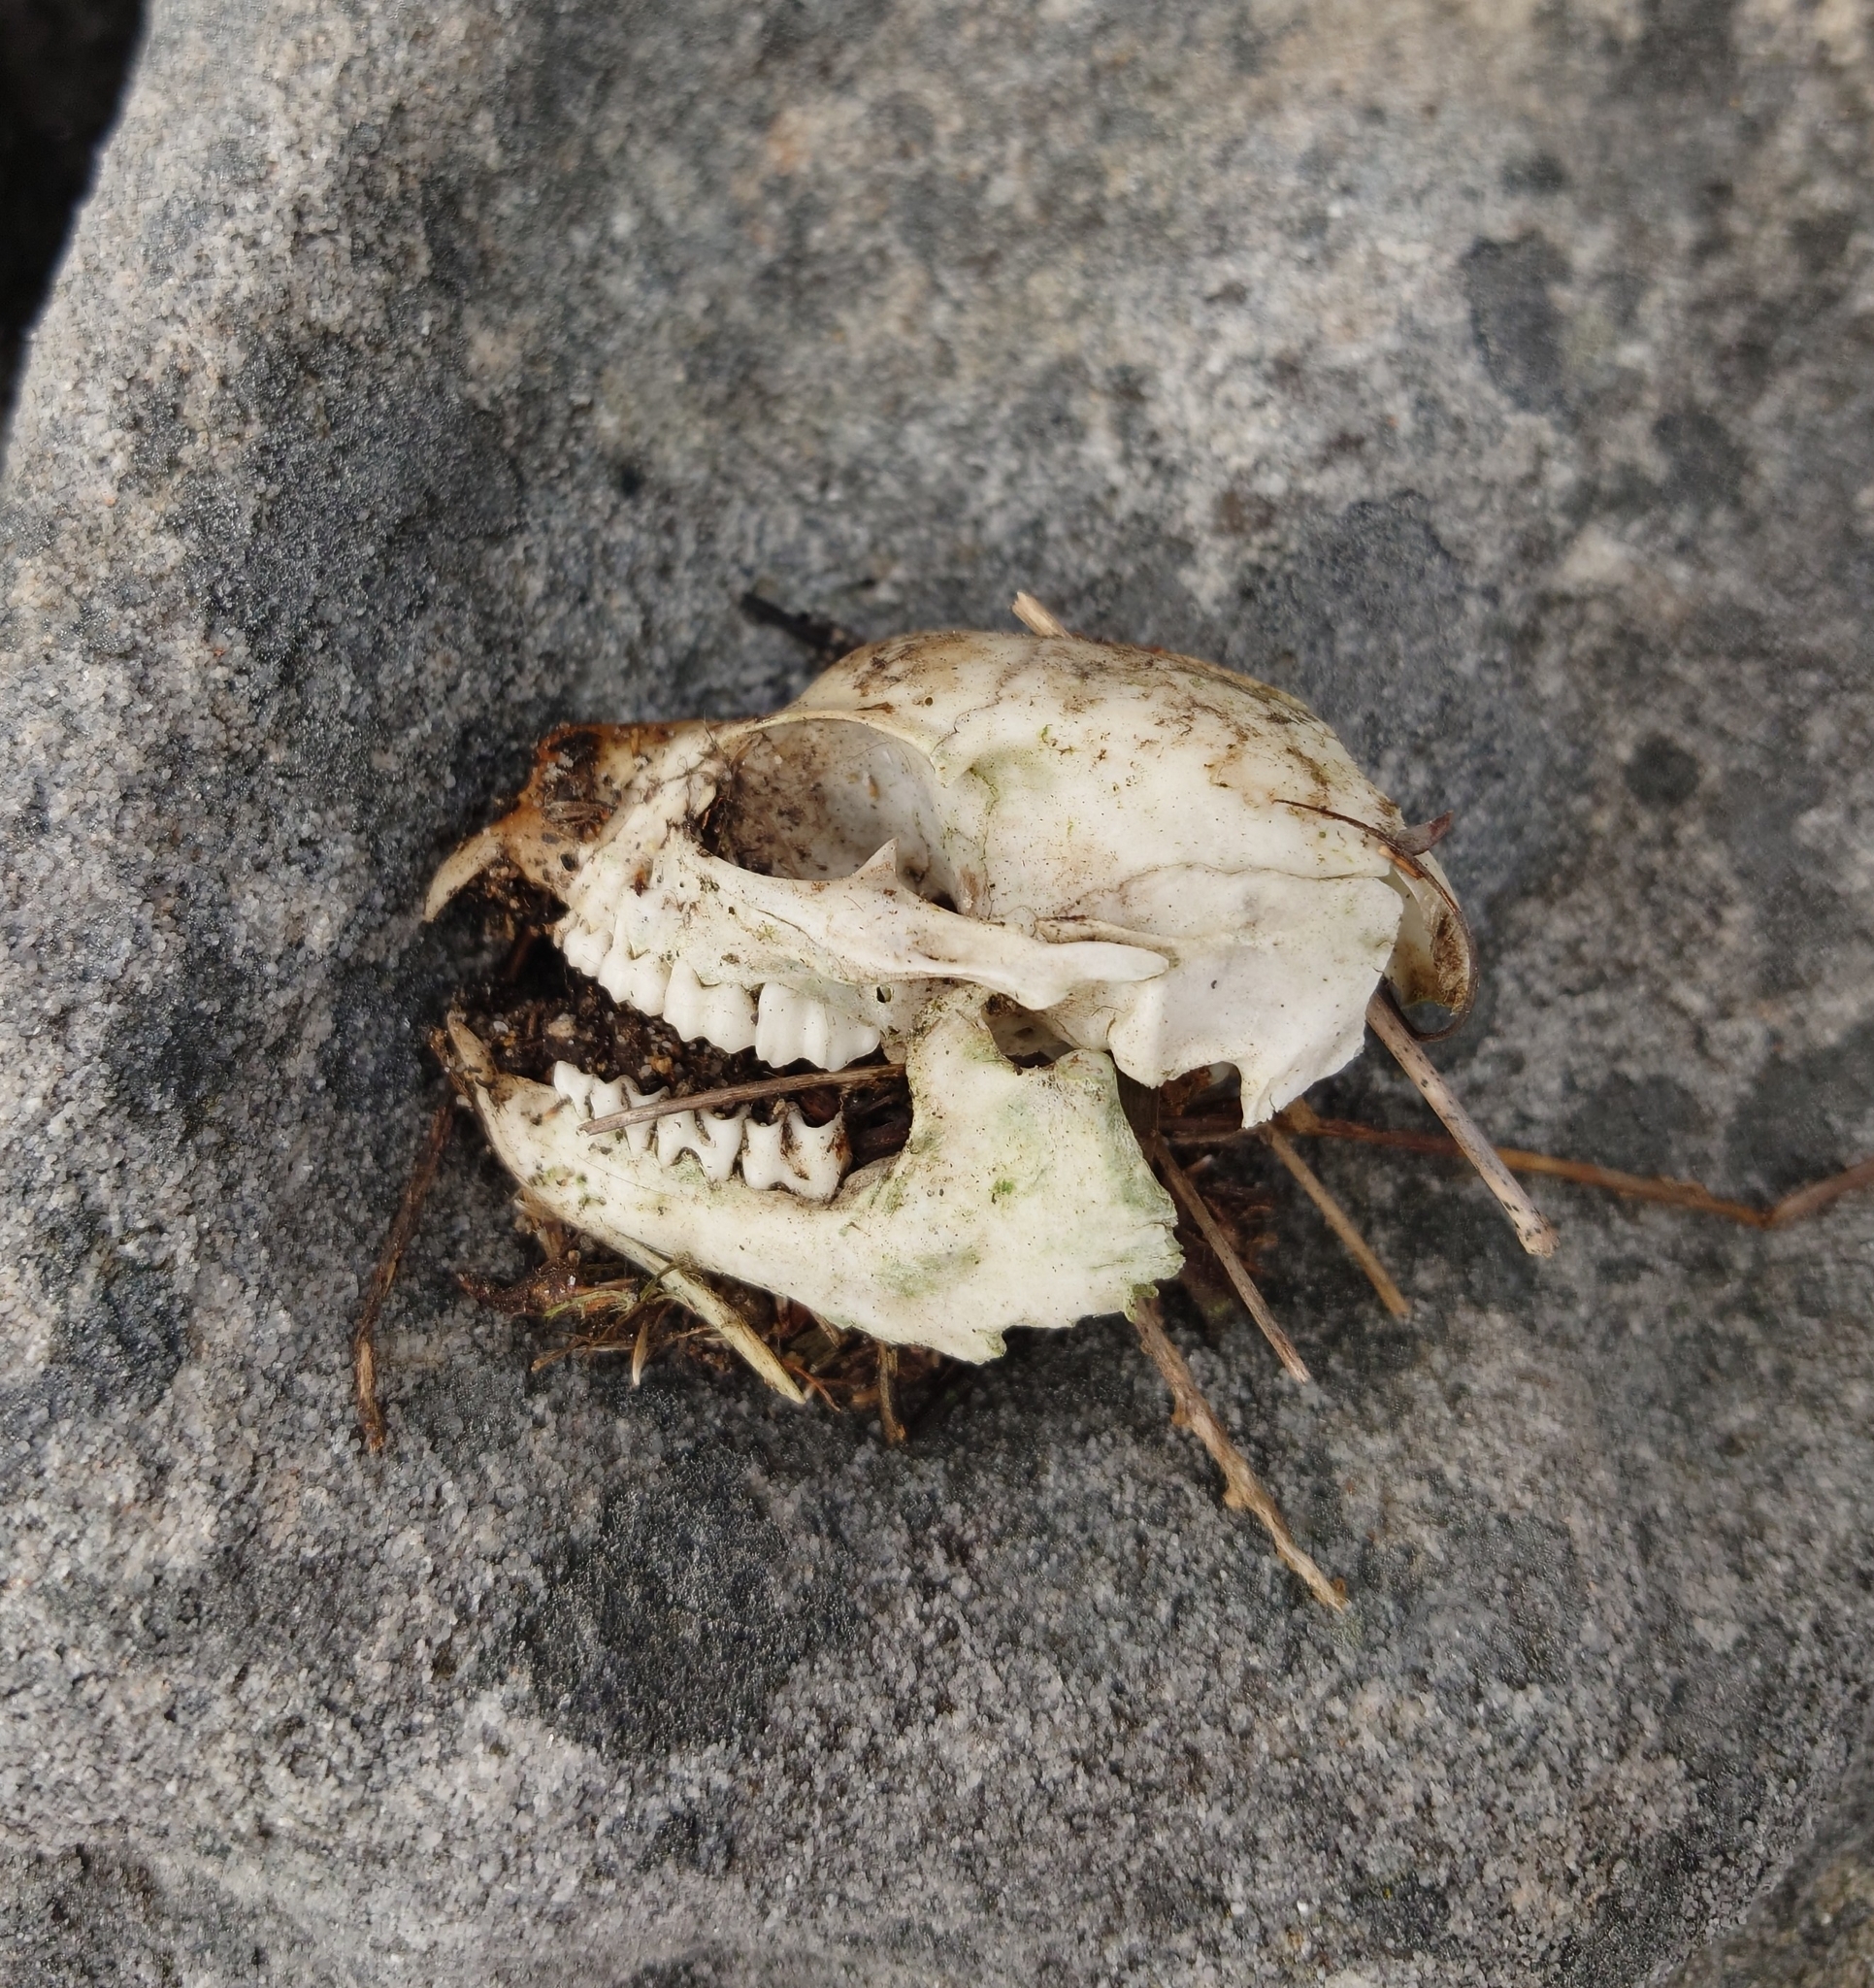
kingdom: Animalia
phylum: Chordata
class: Mammalia
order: Hyracoidea
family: Procaviidae
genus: Procavia
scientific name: Procavia capensis
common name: Rock hyrax
